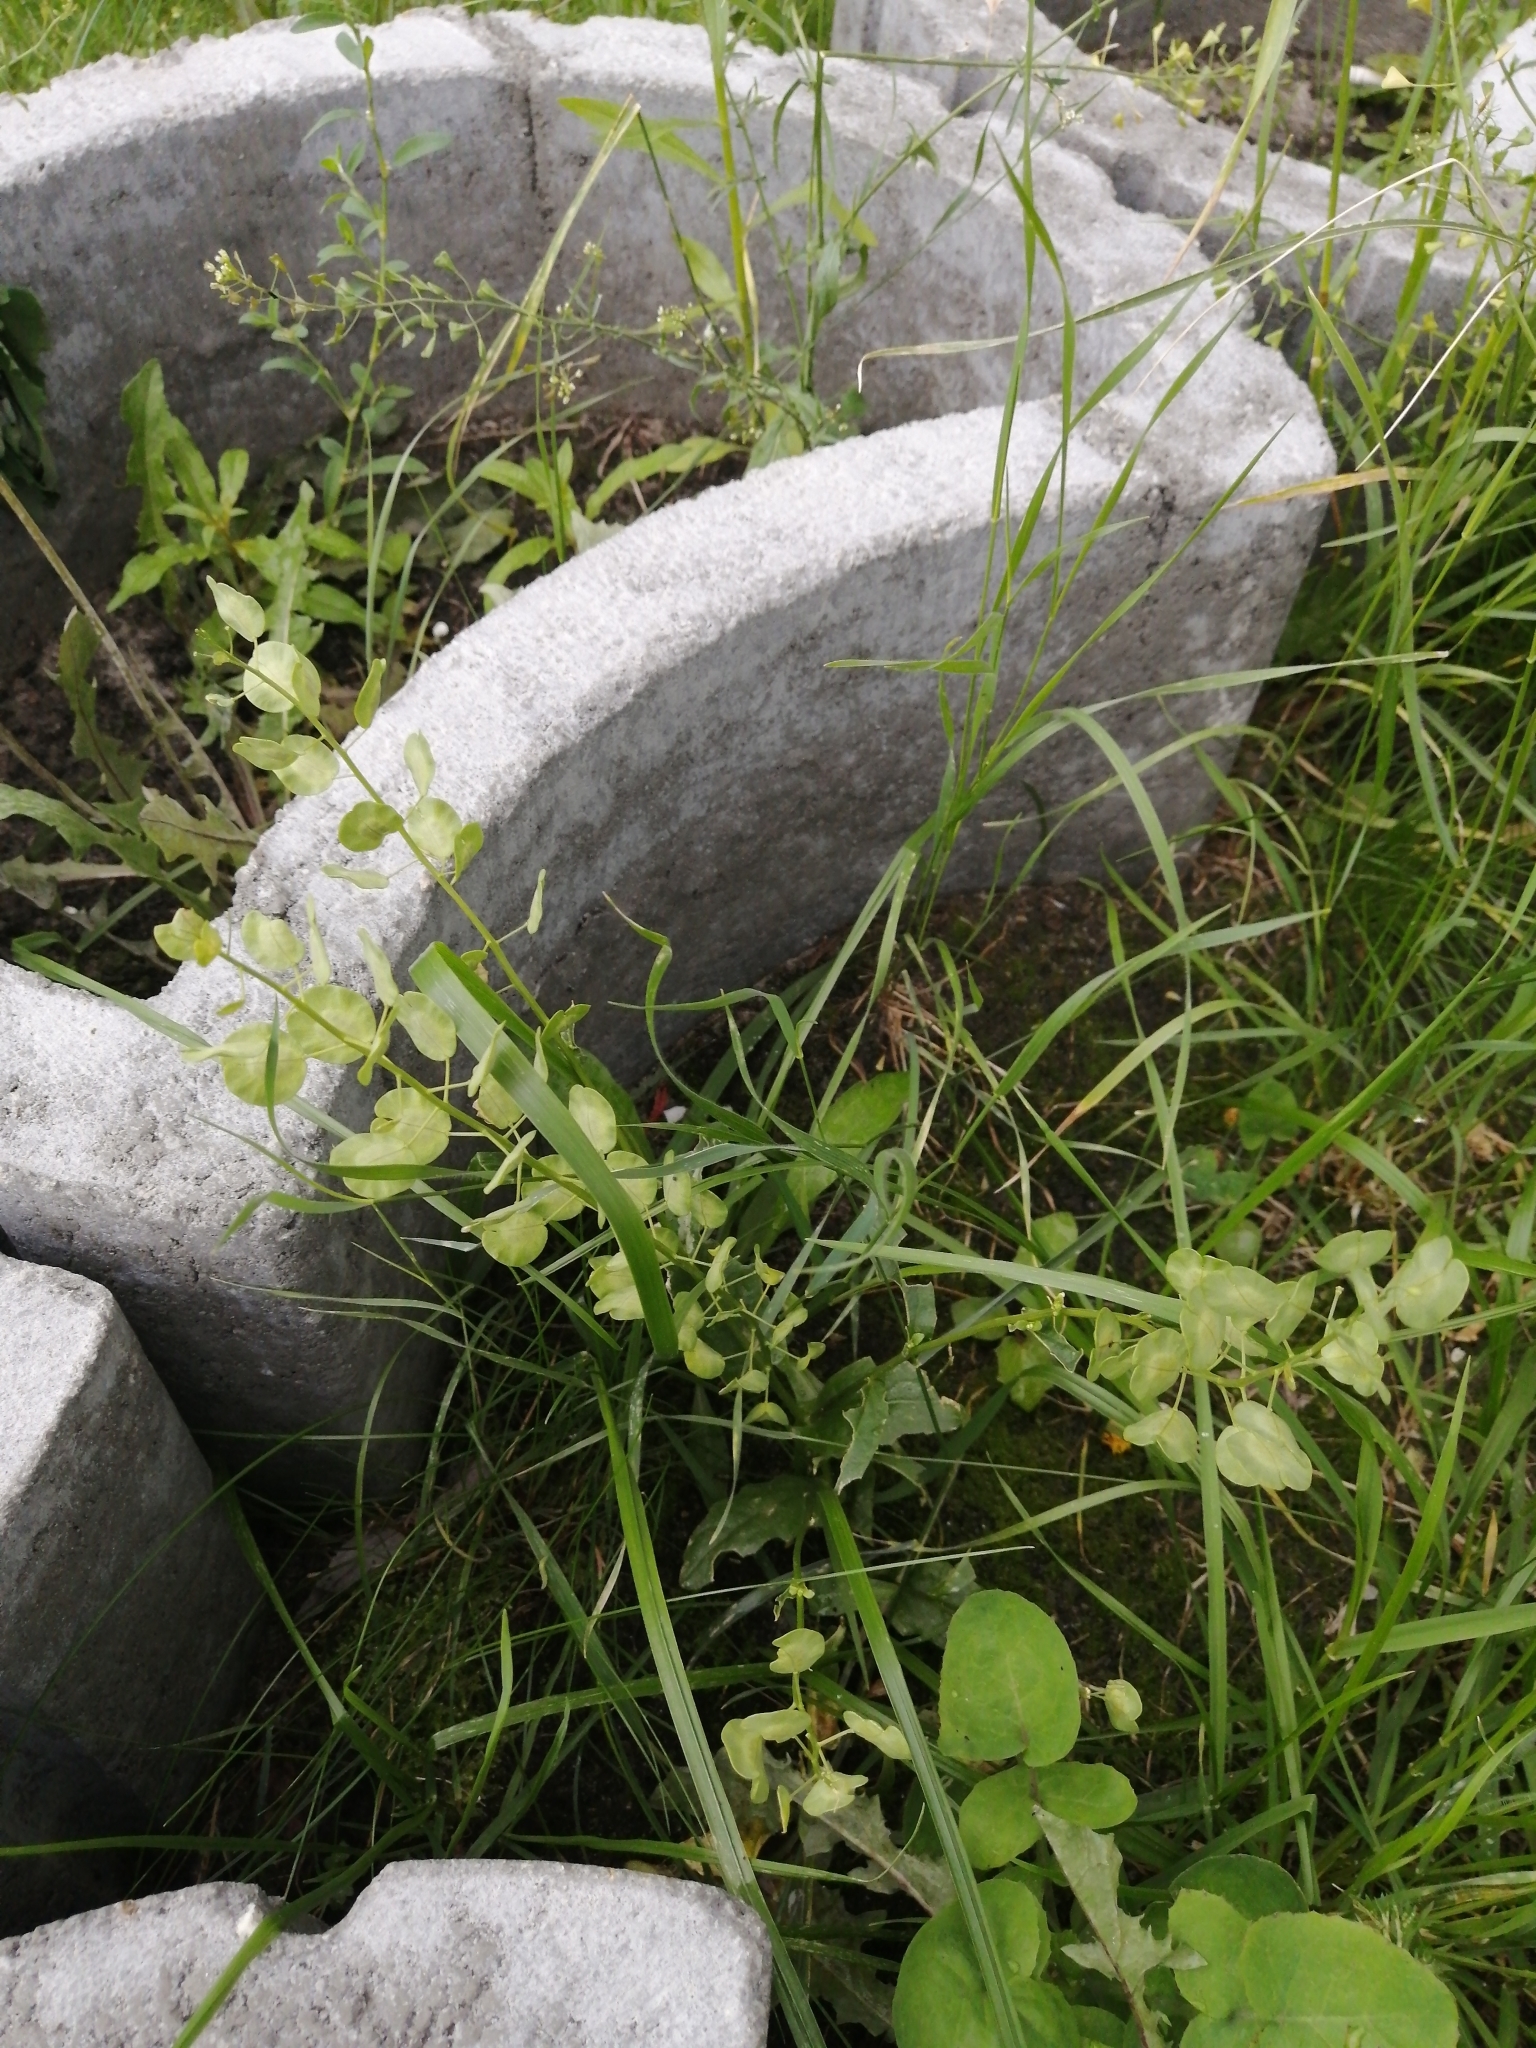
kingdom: Plantae
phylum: Tracheophyta
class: Magnoliopsida
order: Brassicales
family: Brassicaceae
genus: Thlaspi
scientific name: Thlaspi arvense
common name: Field pennycress
